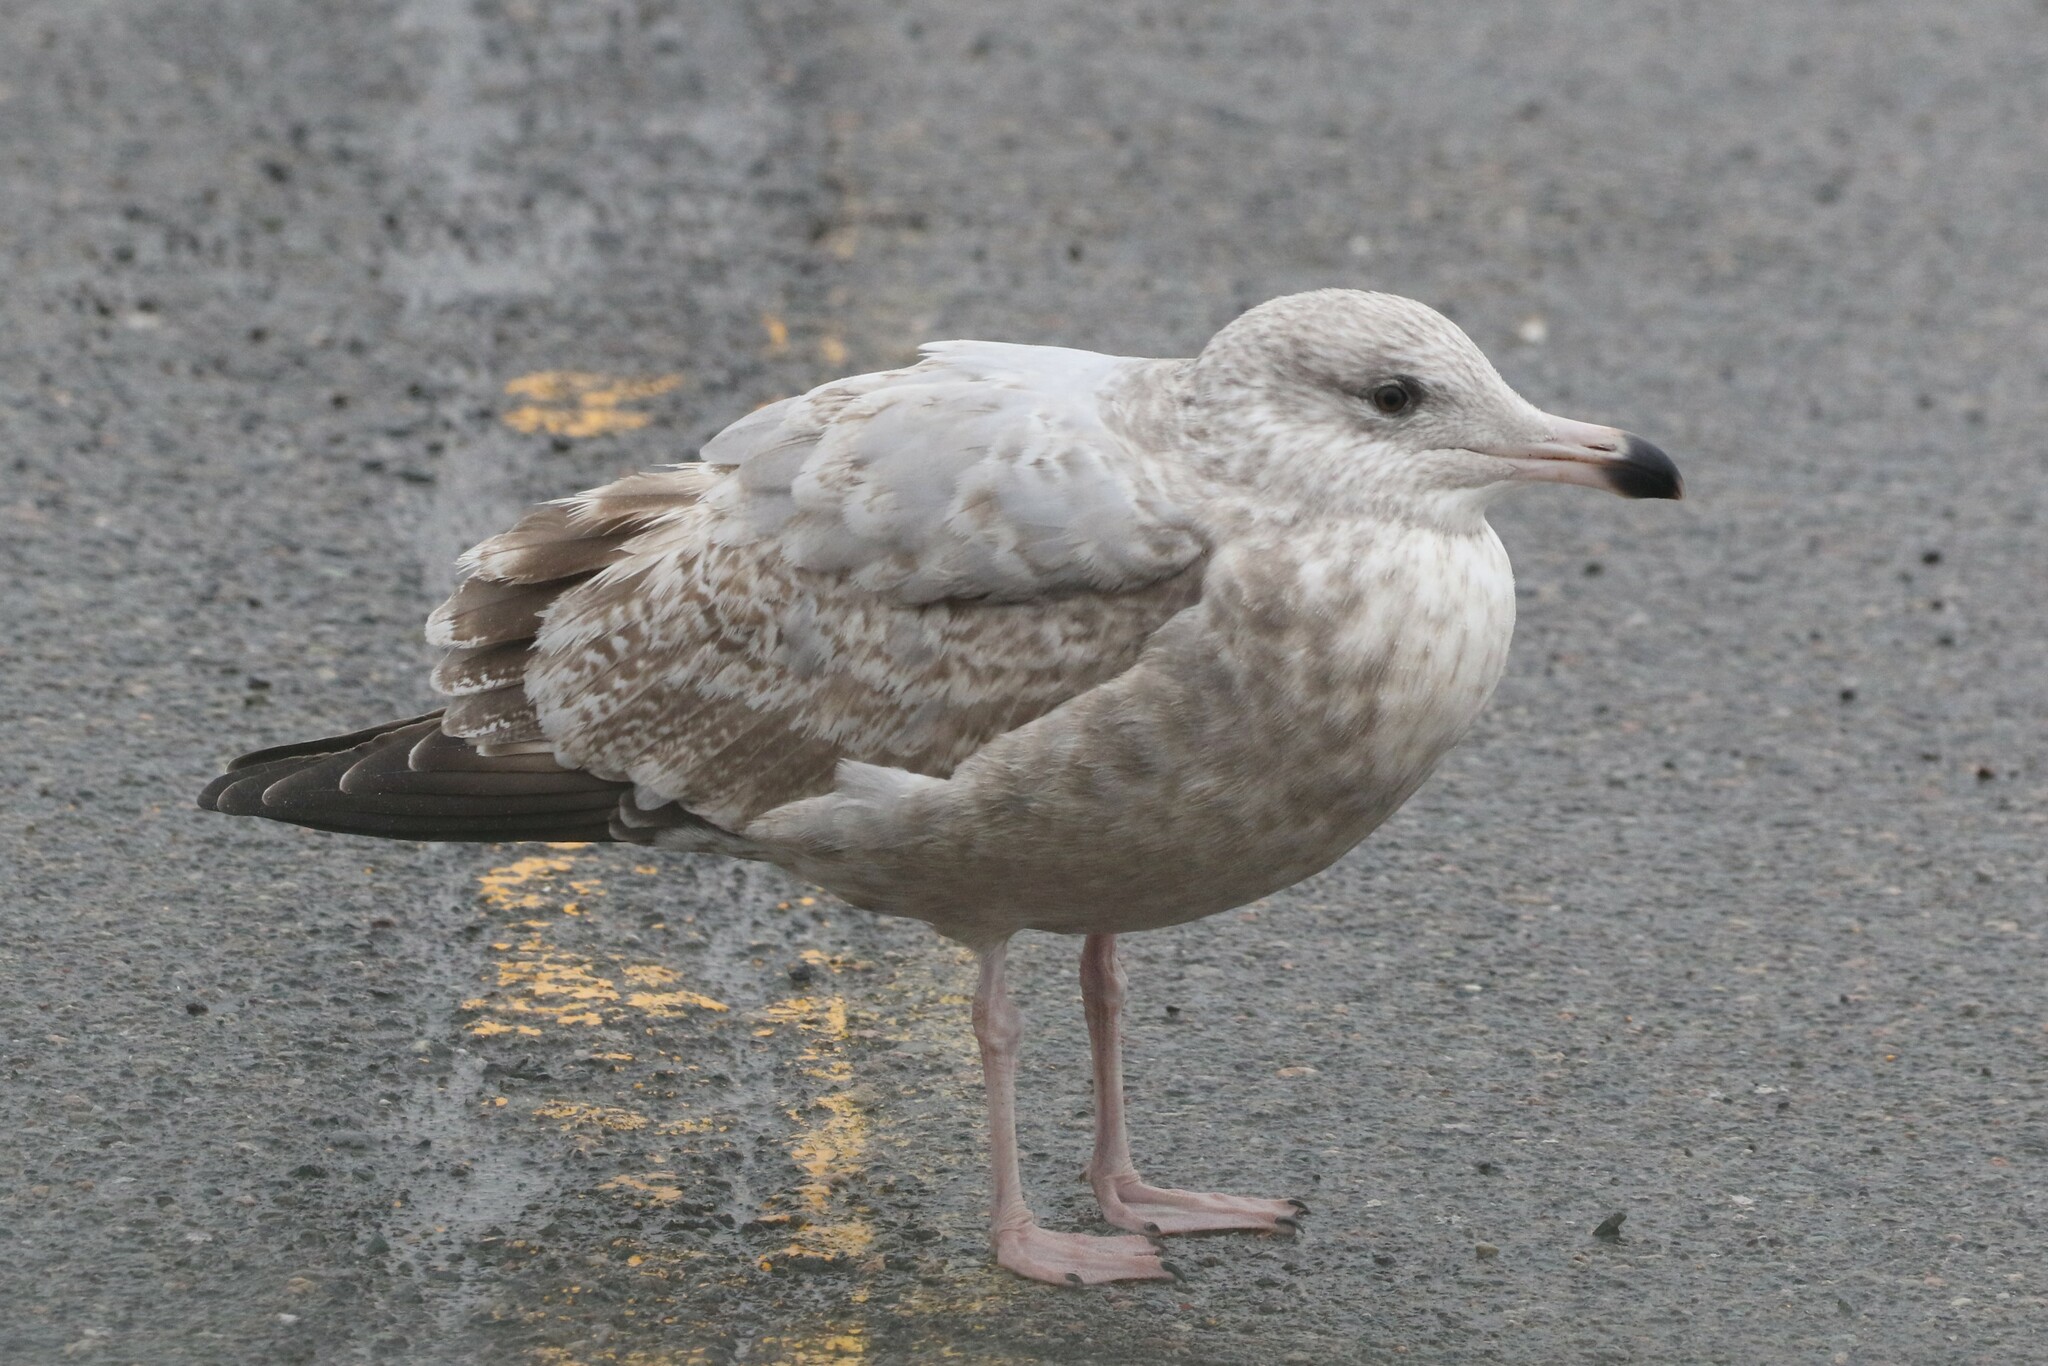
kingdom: Animalia
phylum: Chordata
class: Aves
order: Charadriiformes
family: Laridae
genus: Larus
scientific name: Larus argentatus
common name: Herring gull
